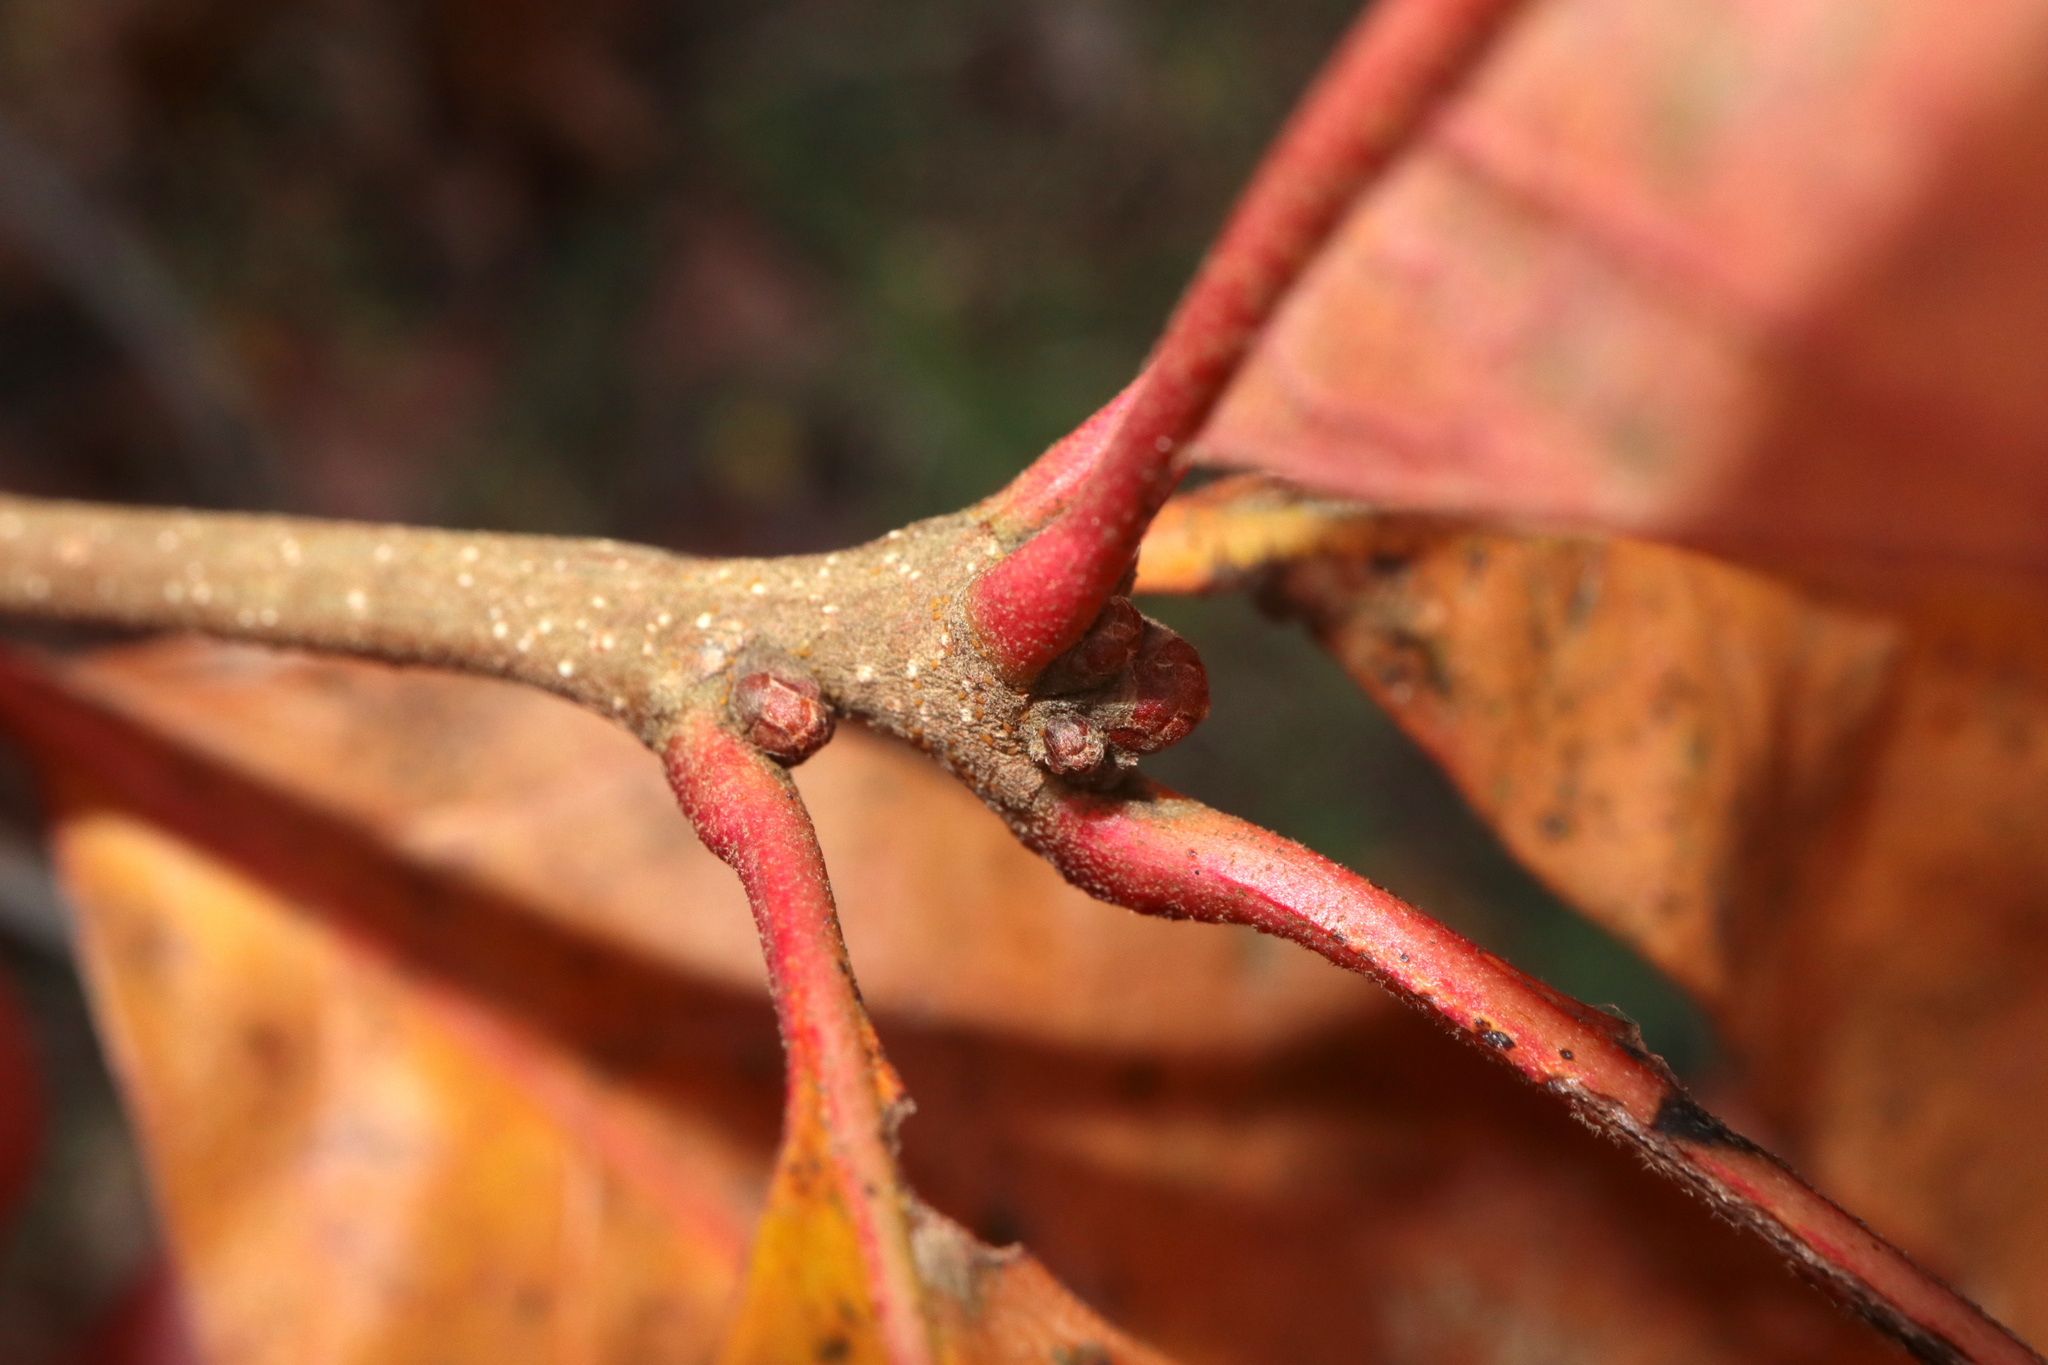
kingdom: Plantae
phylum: Tracheophyta
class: Magnoliopsida
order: Fagales
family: Fagaceae
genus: Quercus
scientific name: Quercus stellata
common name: Post oak
